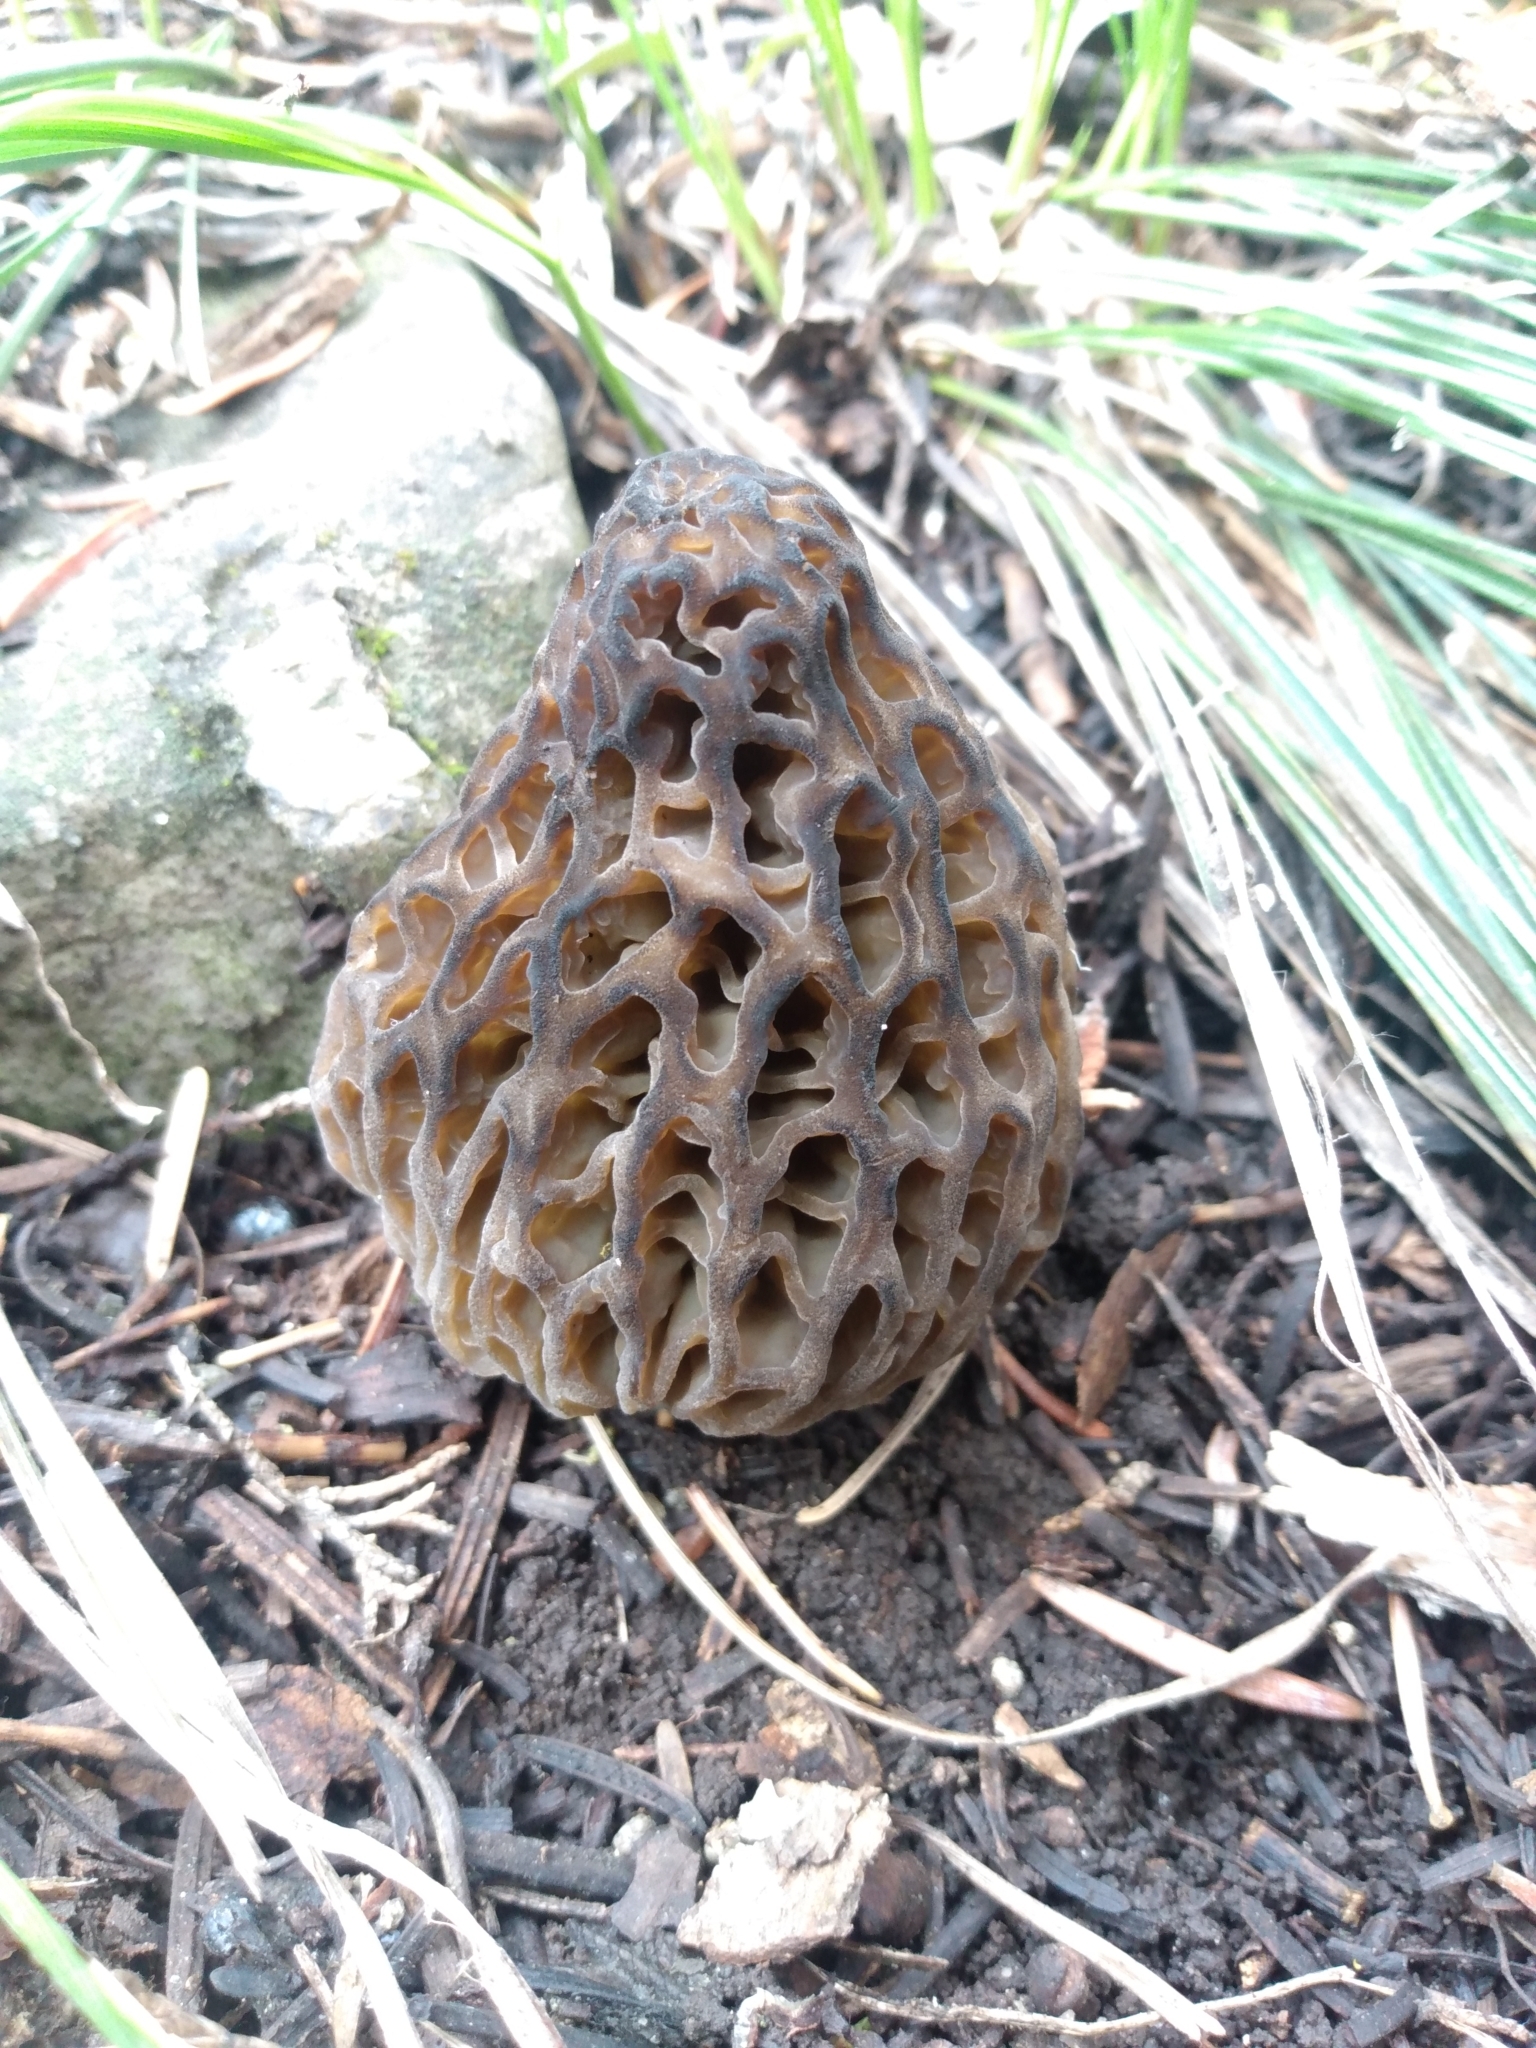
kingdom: Fungi
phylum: Ascomycota
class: Pezizomycetes
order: Pezizales
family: Morchellaceae
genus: Morchella
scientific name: Morchella snyderi
